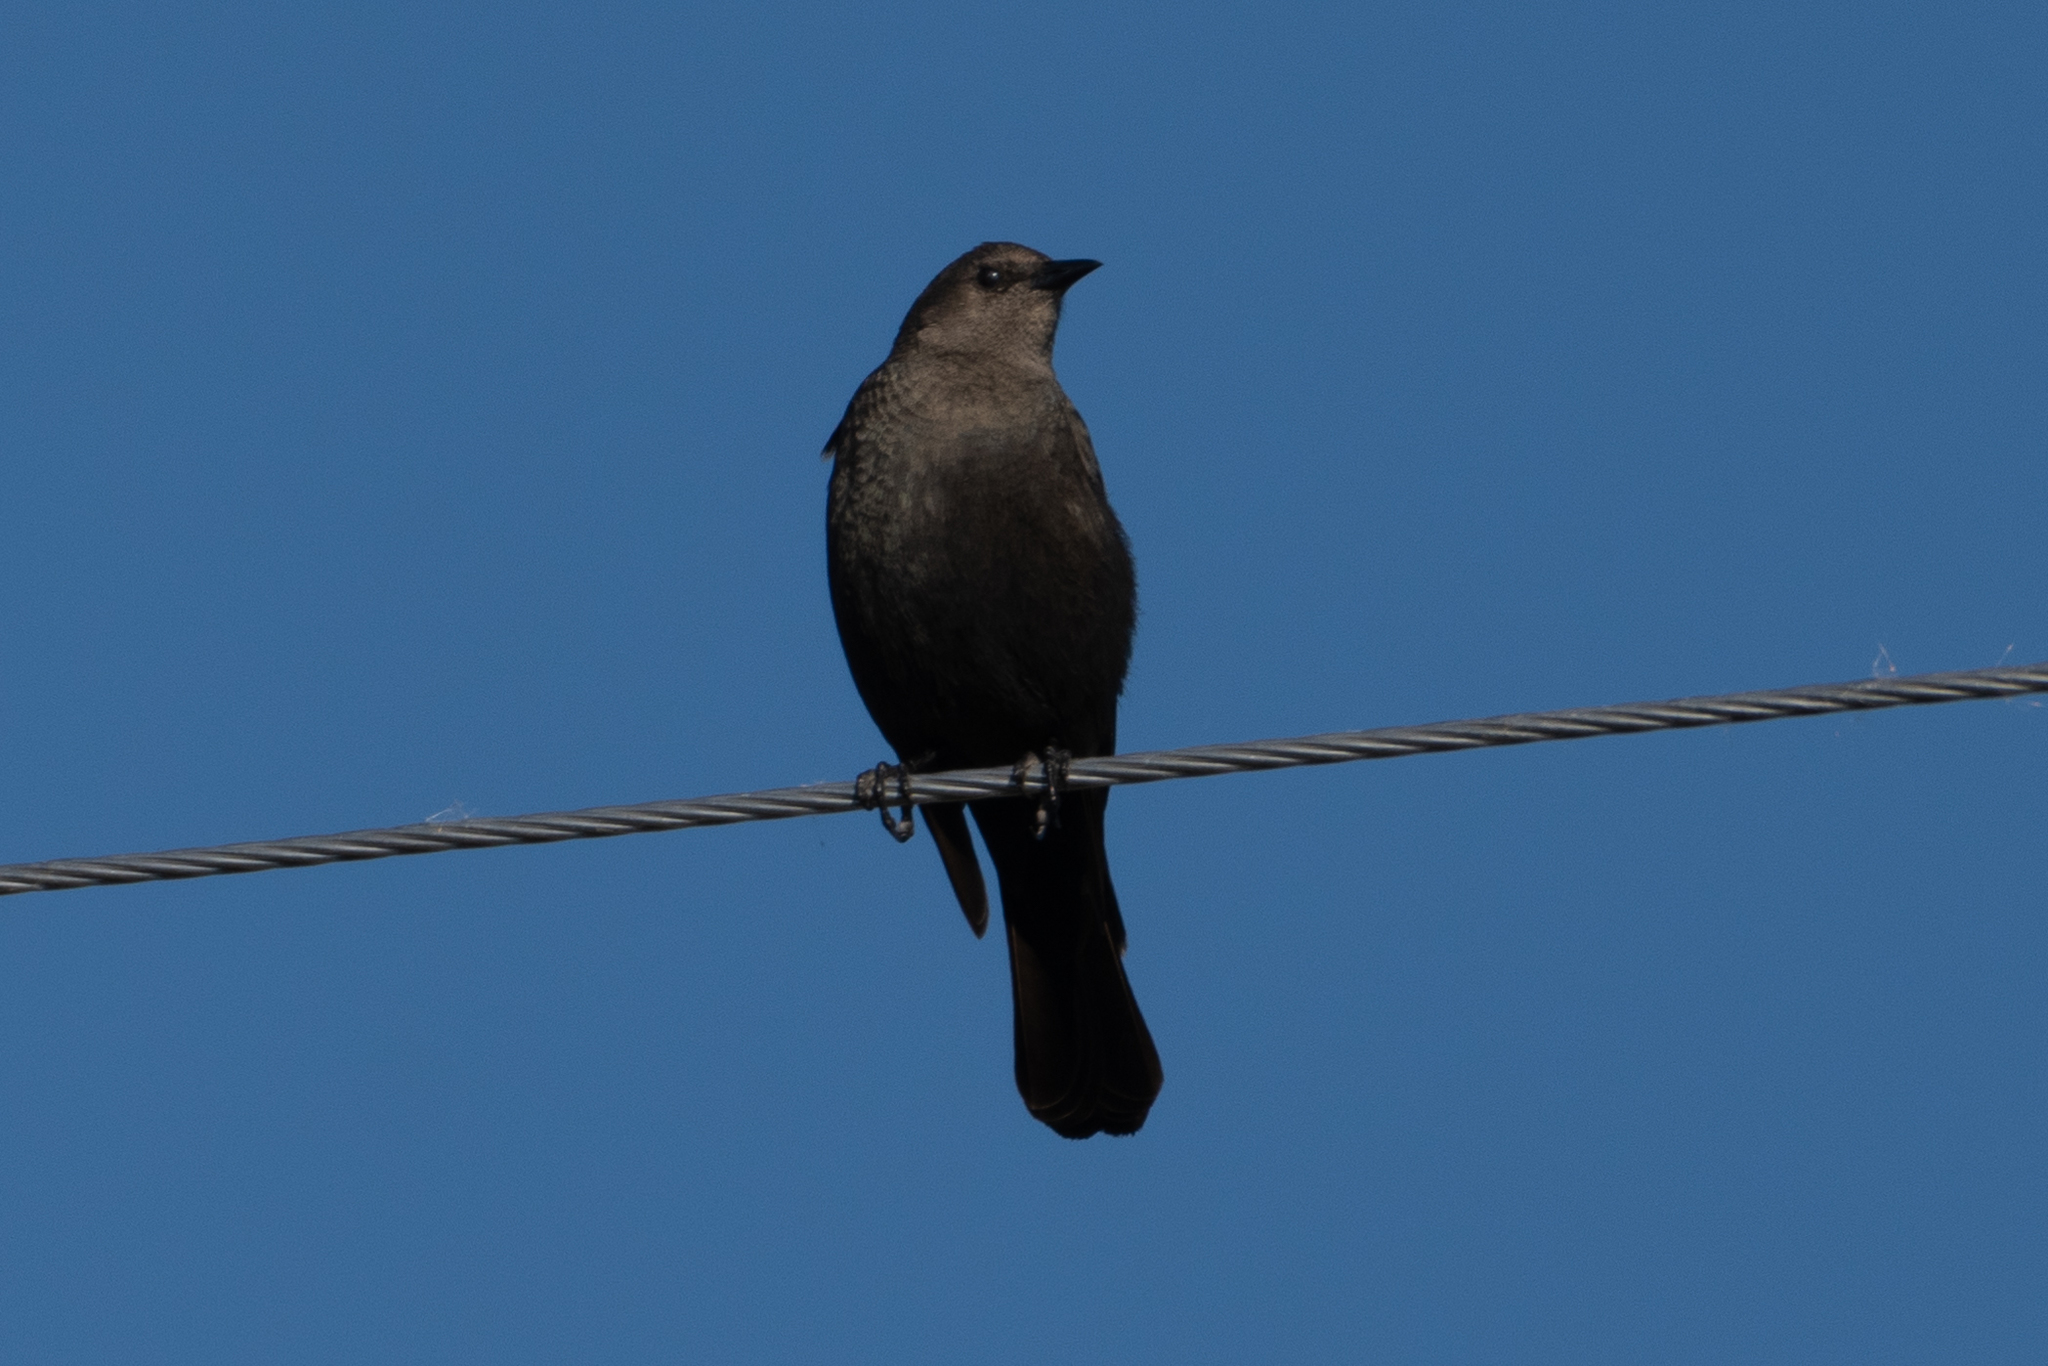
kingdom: Animalia
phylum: Chordata
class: Aves
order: Passeriformes
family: Icteridae
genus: Euphagus
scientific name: Euphagus cyanocephalus
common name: Brewer's blackbird
